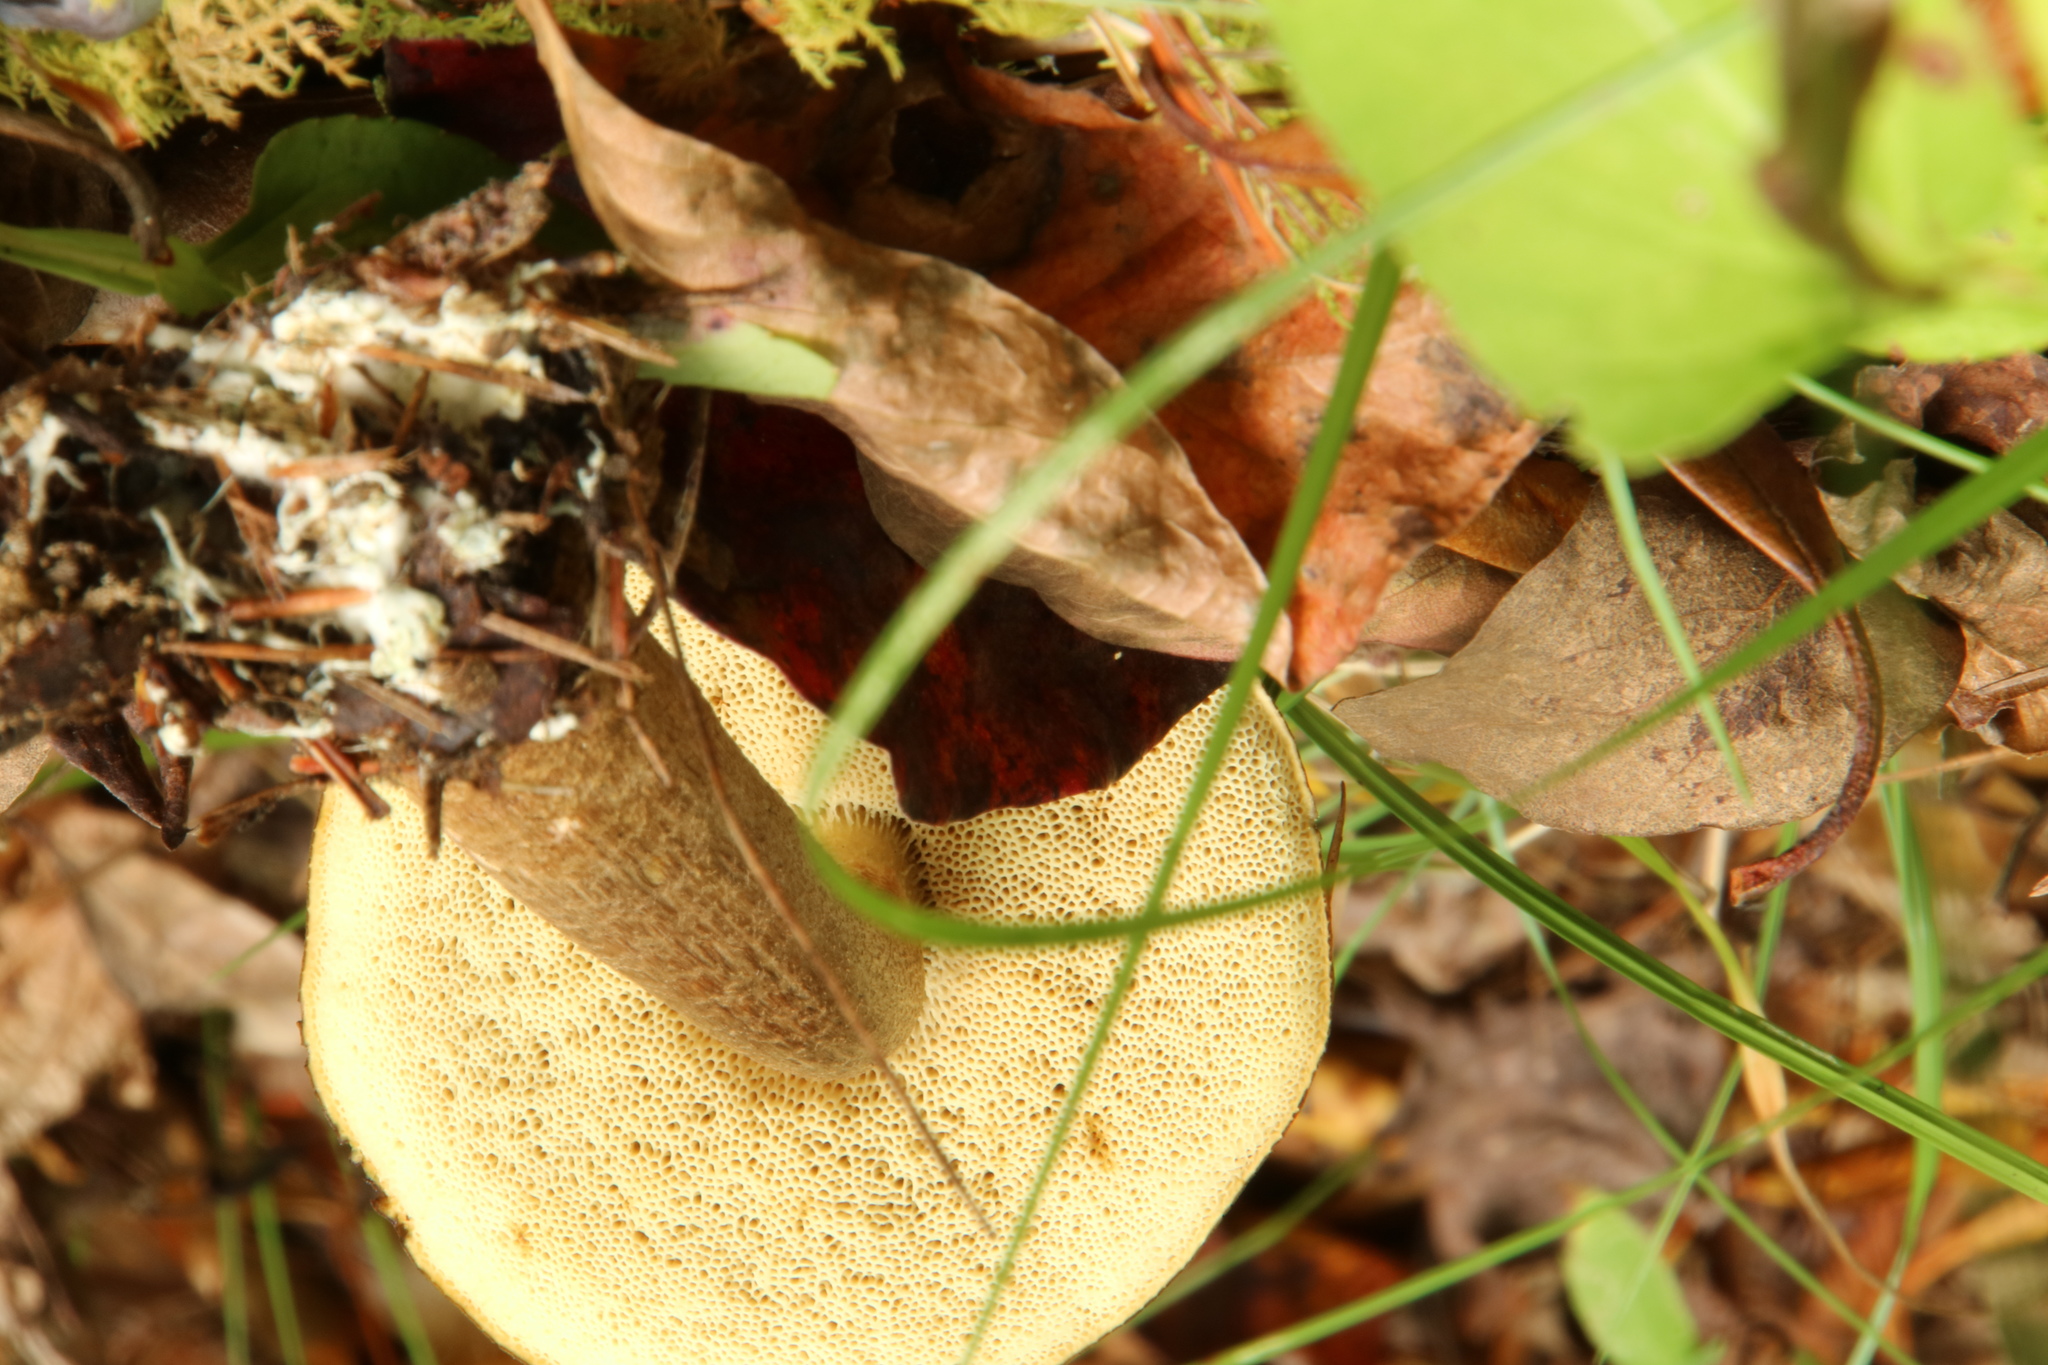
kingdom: Fungi
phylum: Basidiomycota
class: Agaricomycetes
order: Boletales
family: Boletaceae
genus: Leccinum
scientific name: Leccinum longicurvipes
